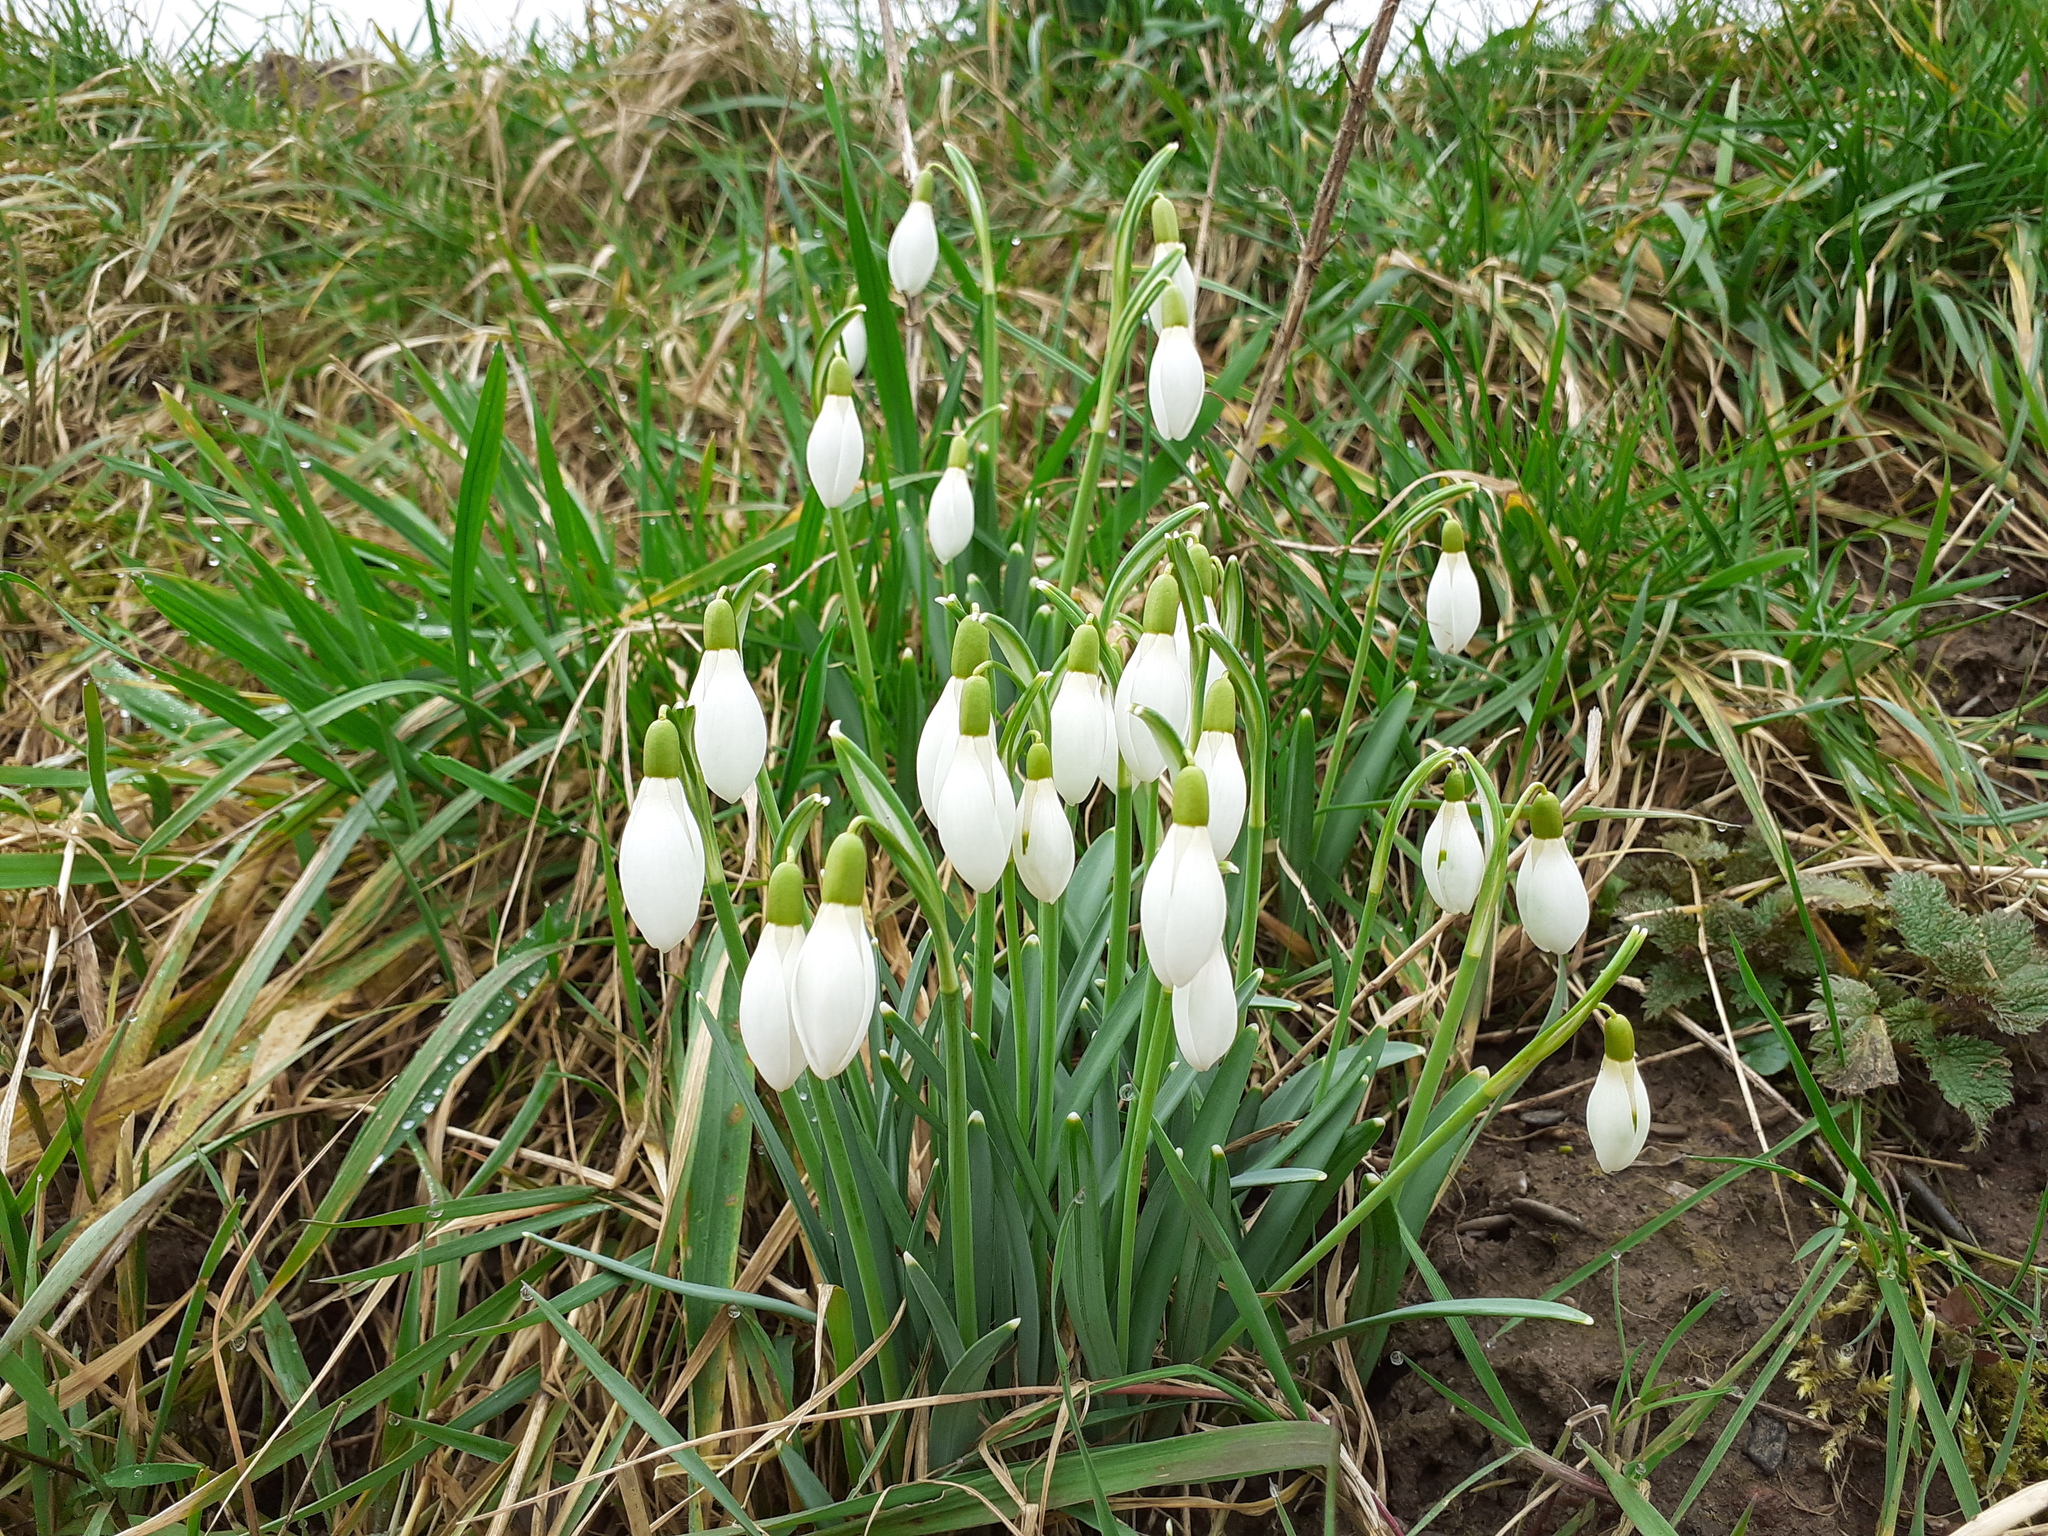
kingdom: Plantae
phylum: Tracheophyta
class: Liliopsida
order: Asparagales
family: Amaryllidaceae
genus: Galanthus
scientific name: Galanthus nivalis
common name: Snowdrop
